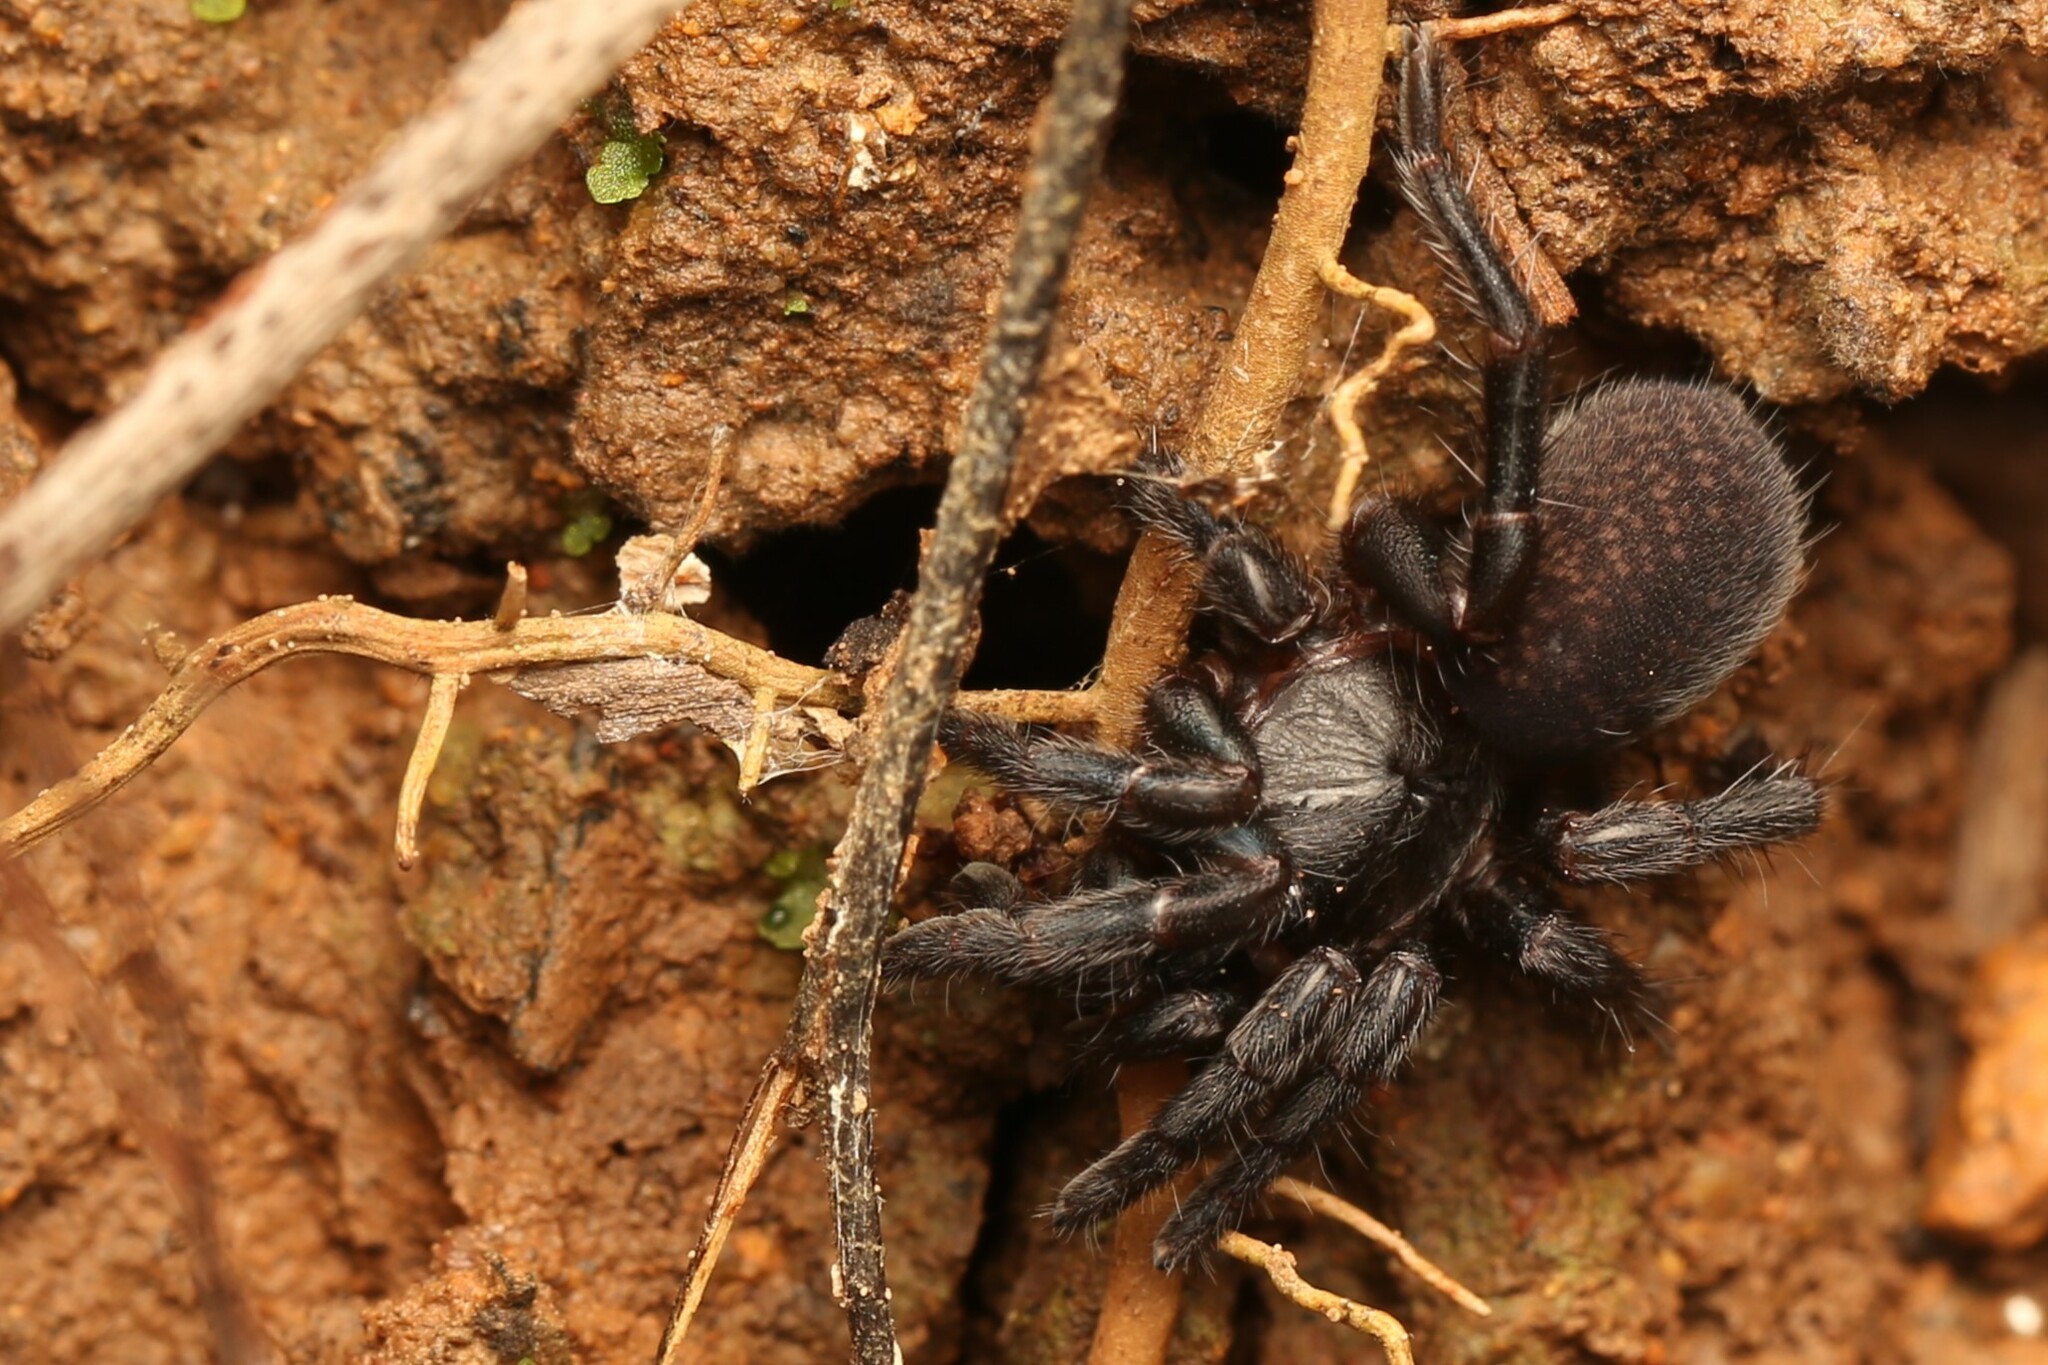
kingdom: Animalia
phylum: Arthropoda
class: Arachnida
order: Araneae
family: Barychelidae
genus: Seqocrypta
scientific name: Seqocrypta hamlynharrisi
